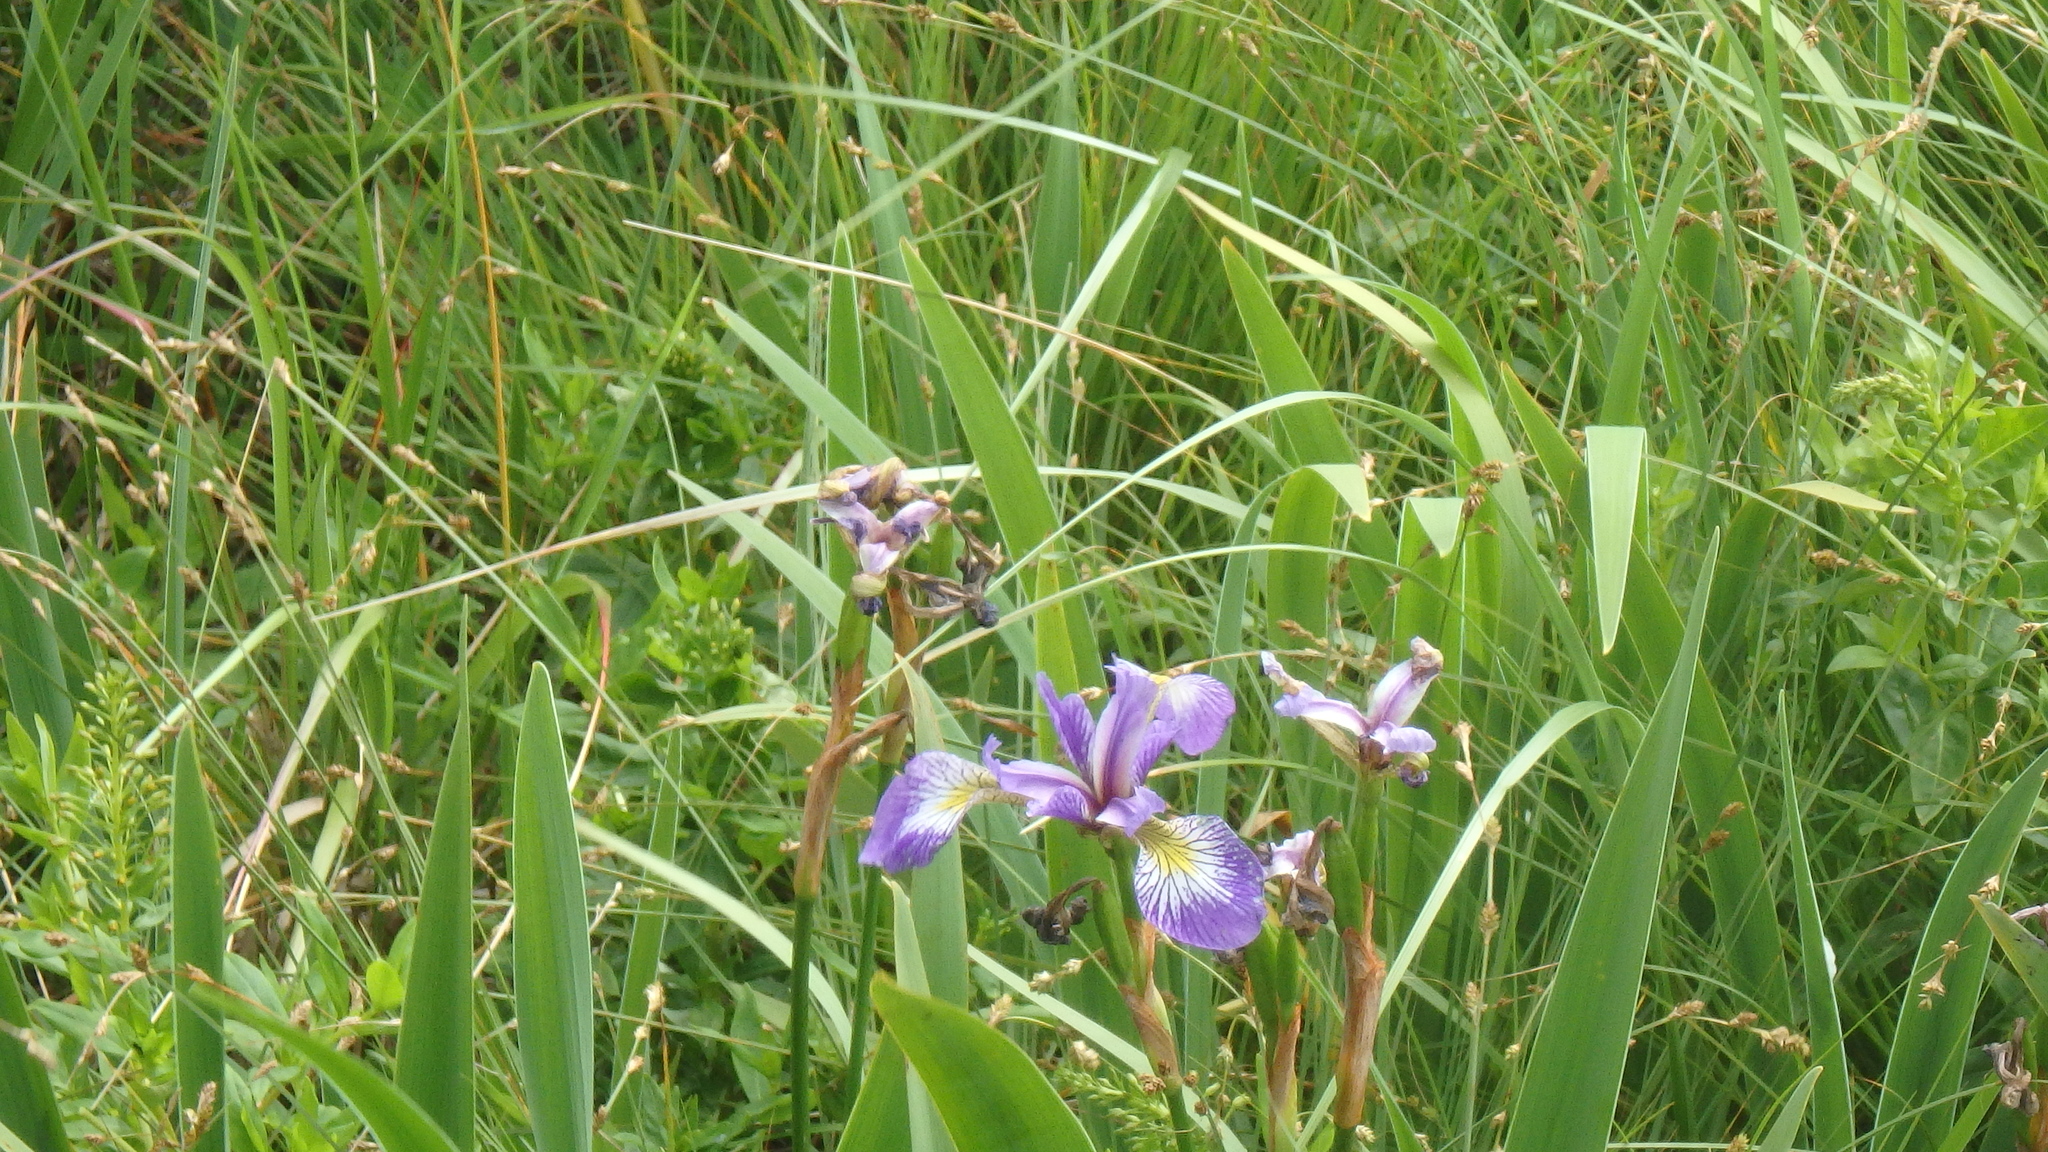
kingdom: Plantae
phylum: Tracheophyta
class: Liliopsida
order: Asparagales
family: Iridaceae
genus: Iris
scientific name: Iris versicolor
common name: Purple iris
